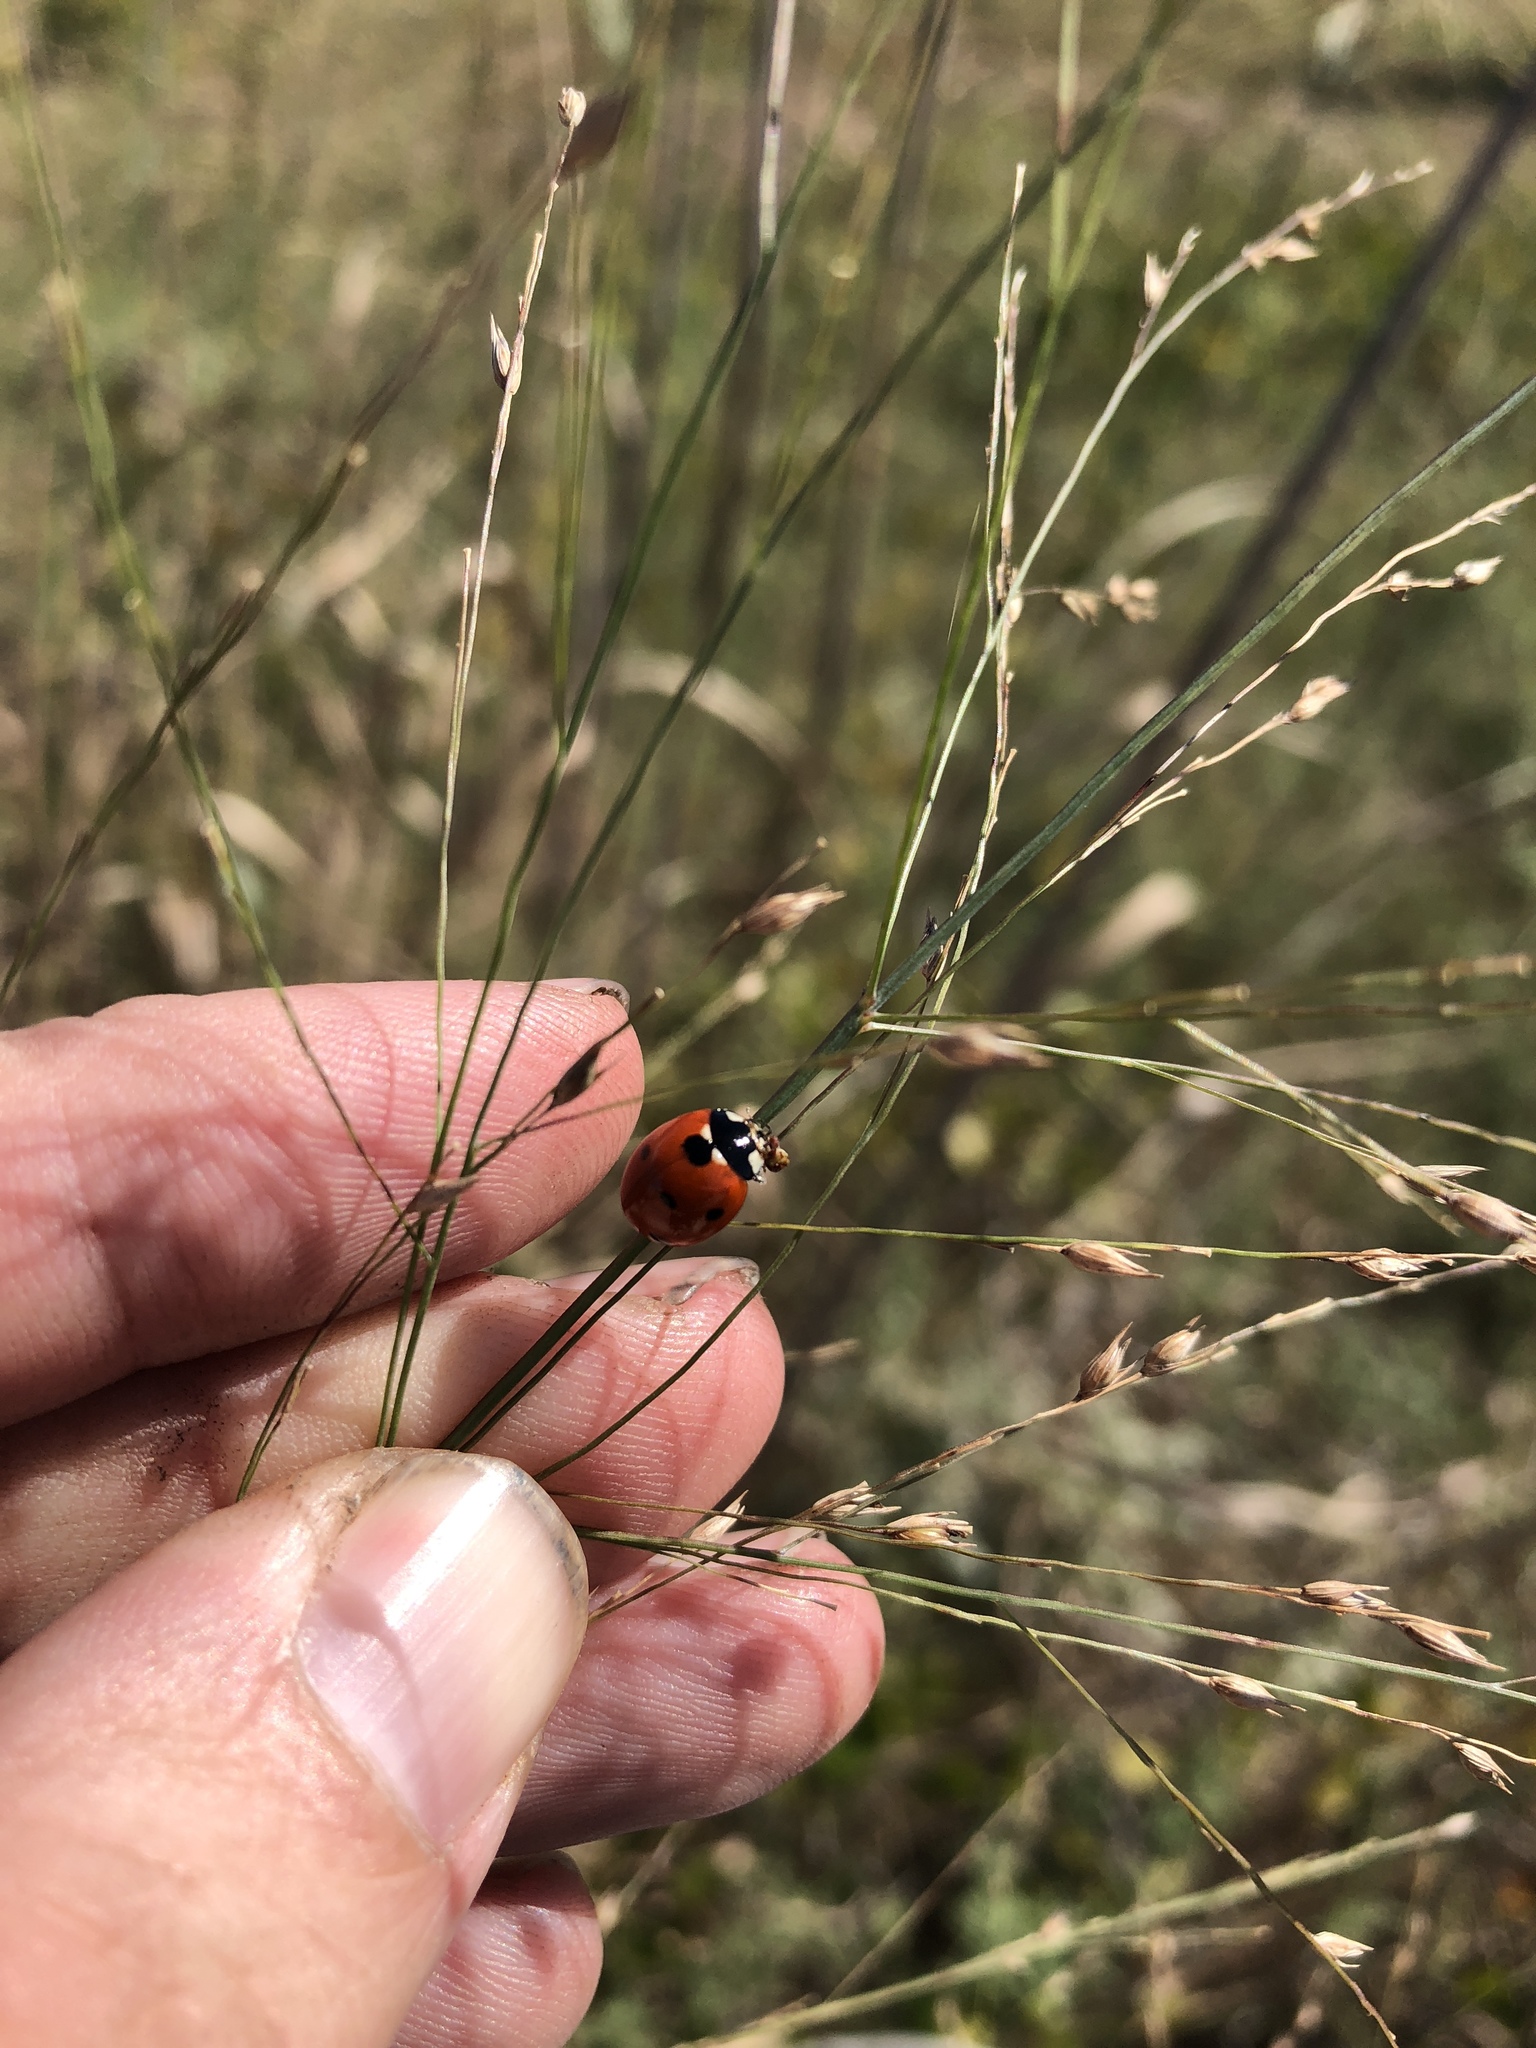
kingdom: Animalia
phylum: Arthropoda
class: Insecta
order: Coleoptera
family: Coccinellidae
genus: Coccinella
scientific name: Coccinella septempunctata
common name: Sevenspotted lady beetle
